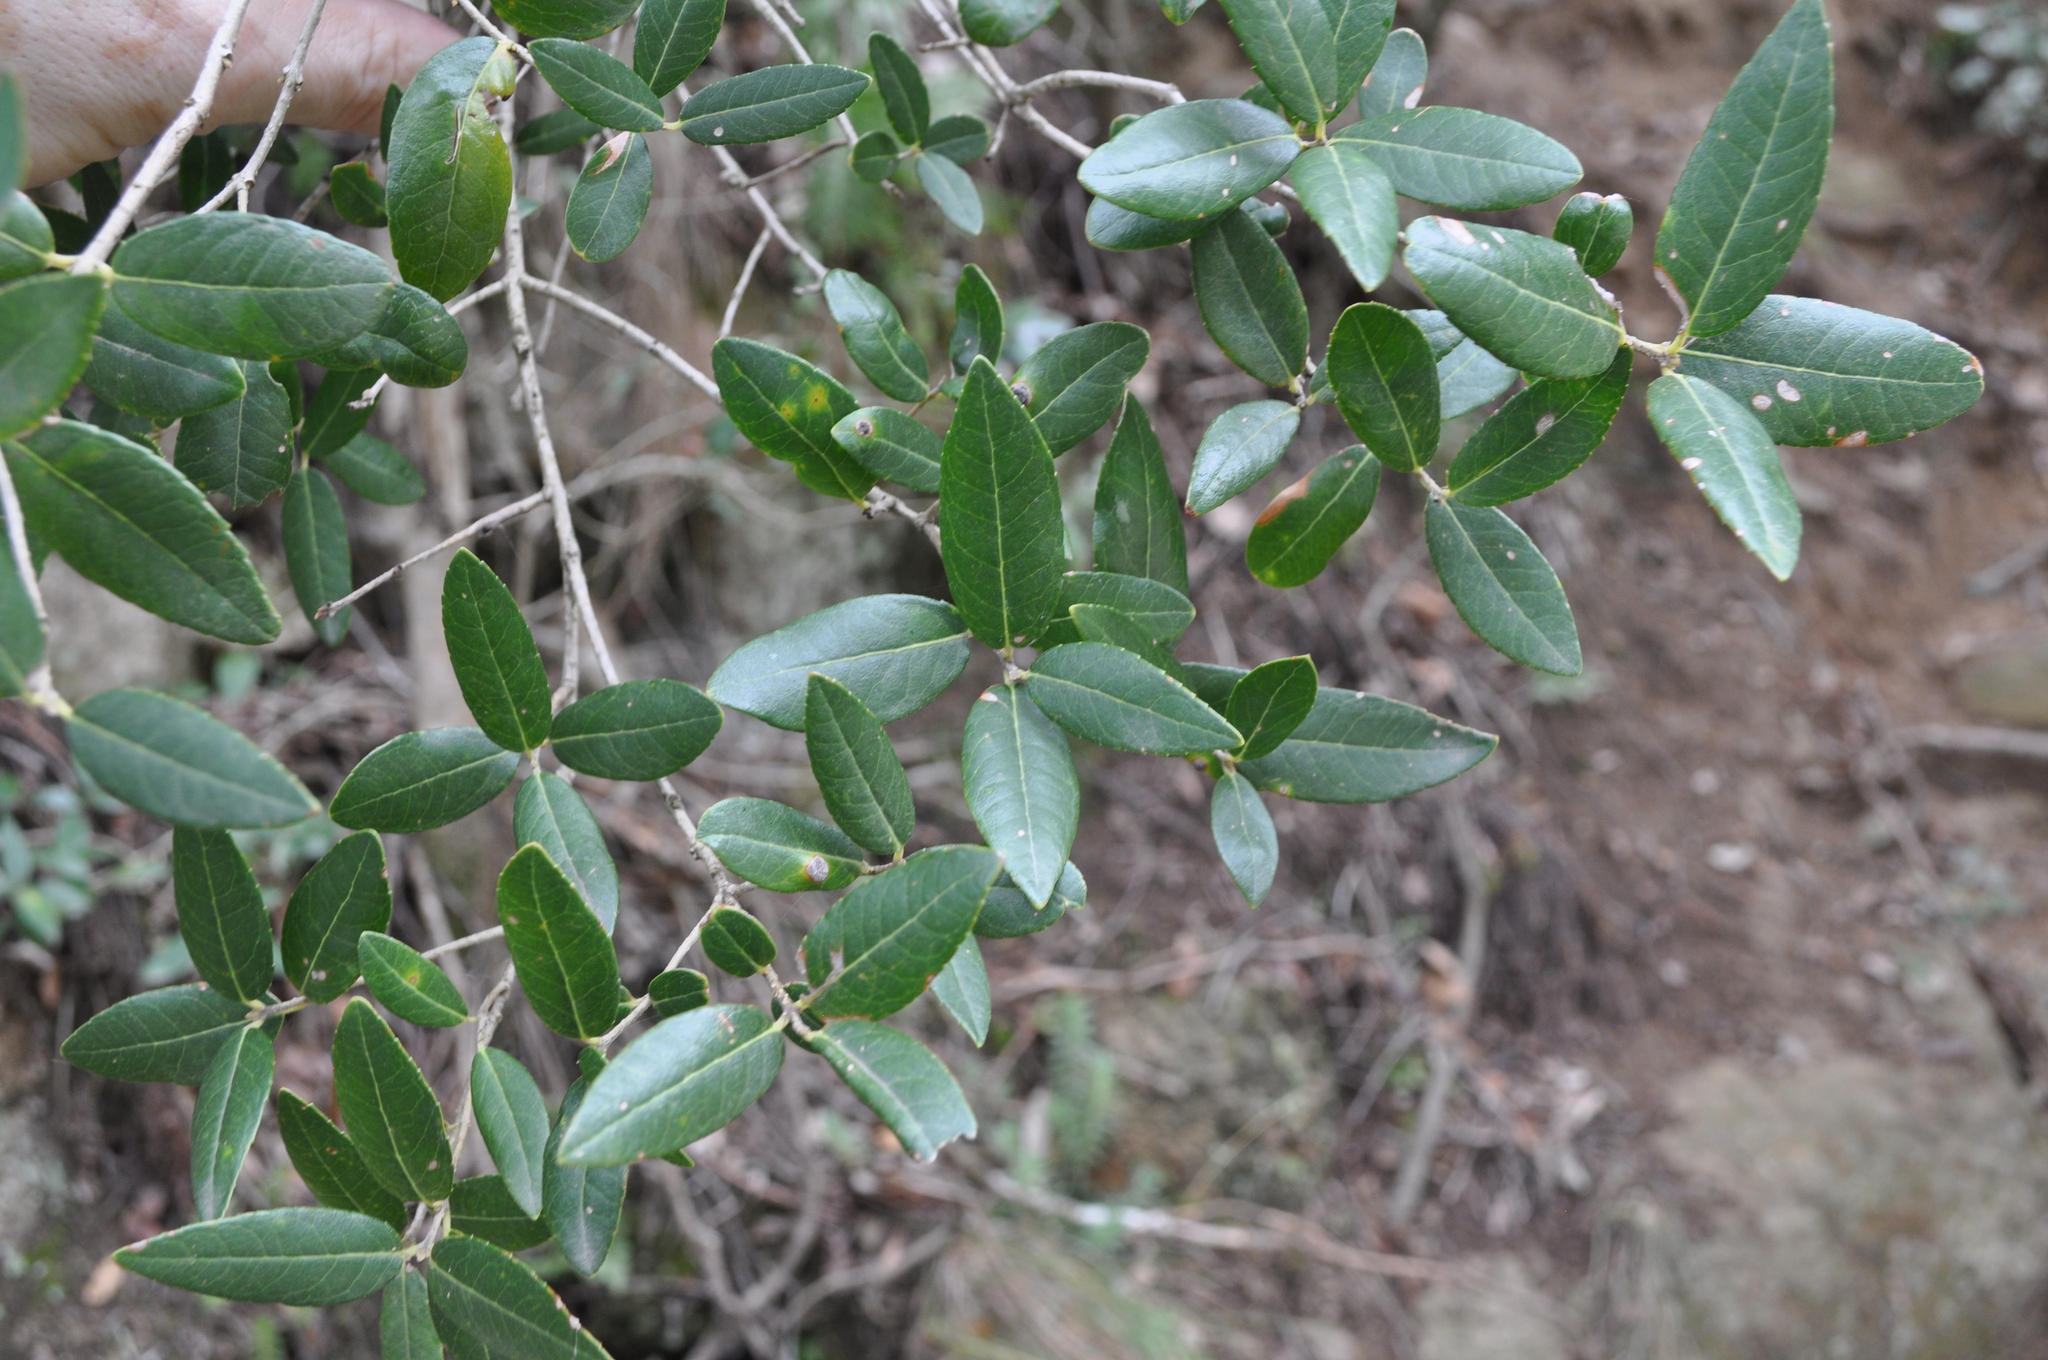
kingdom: Plantae
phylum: Tracheophyta
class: Magnoliopsida
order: Lamiales
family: Oleaceae
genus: Phillyrea
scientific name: Phillyrea latifolia
